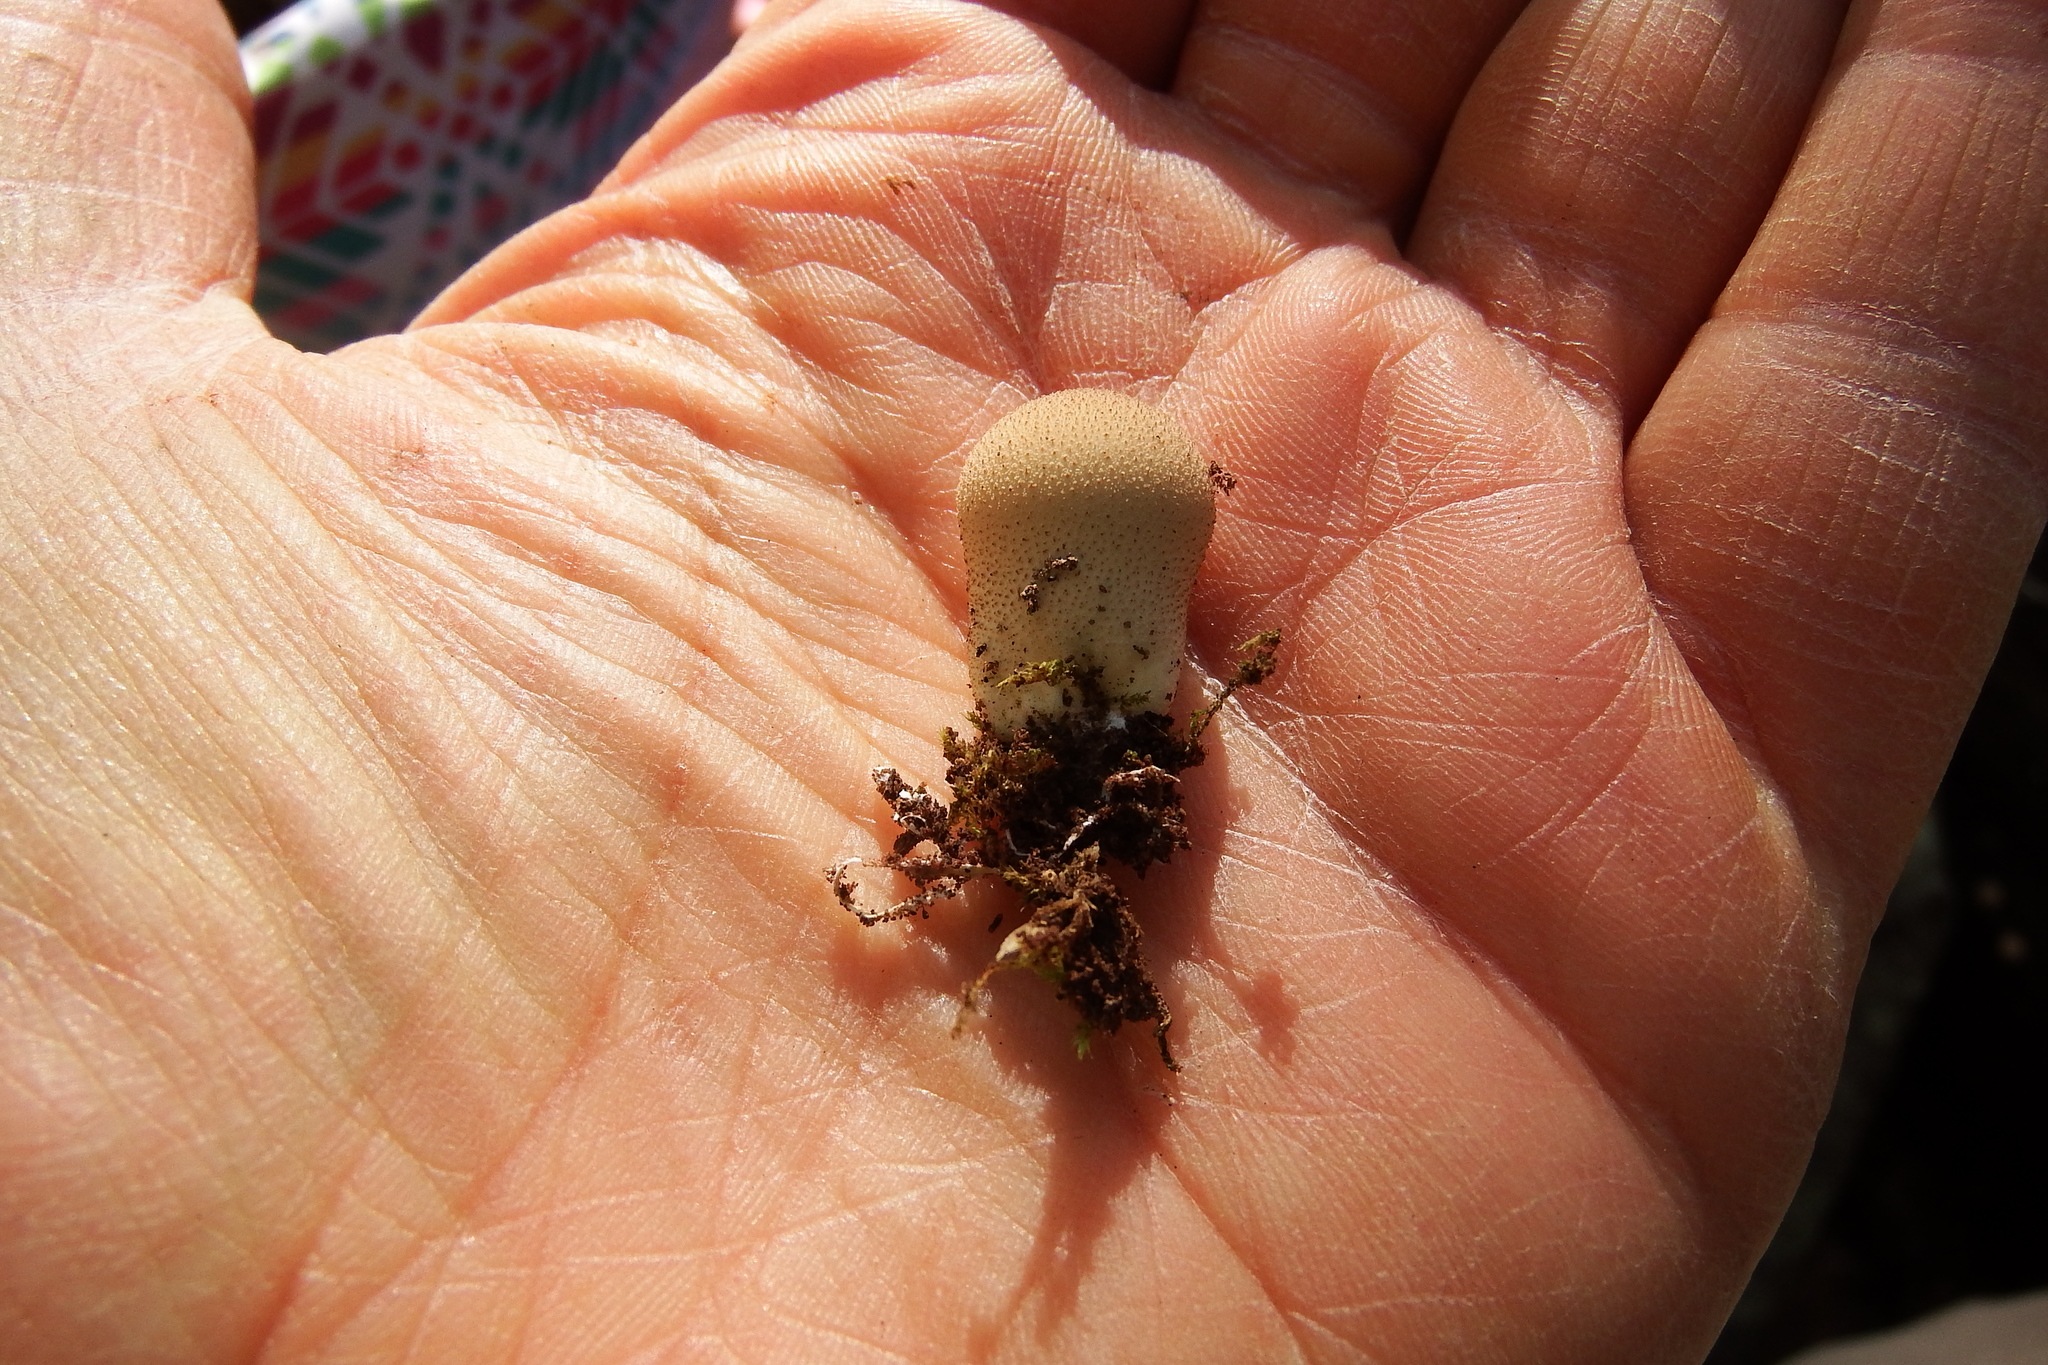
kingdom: Fungi
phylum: Basidiomycota
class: Agaricomycetes
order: Agaricales
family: Lycoperdaceae
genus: Apioperdon
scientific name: Apioperdon pyriforme
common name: Pear-shaped puffball
